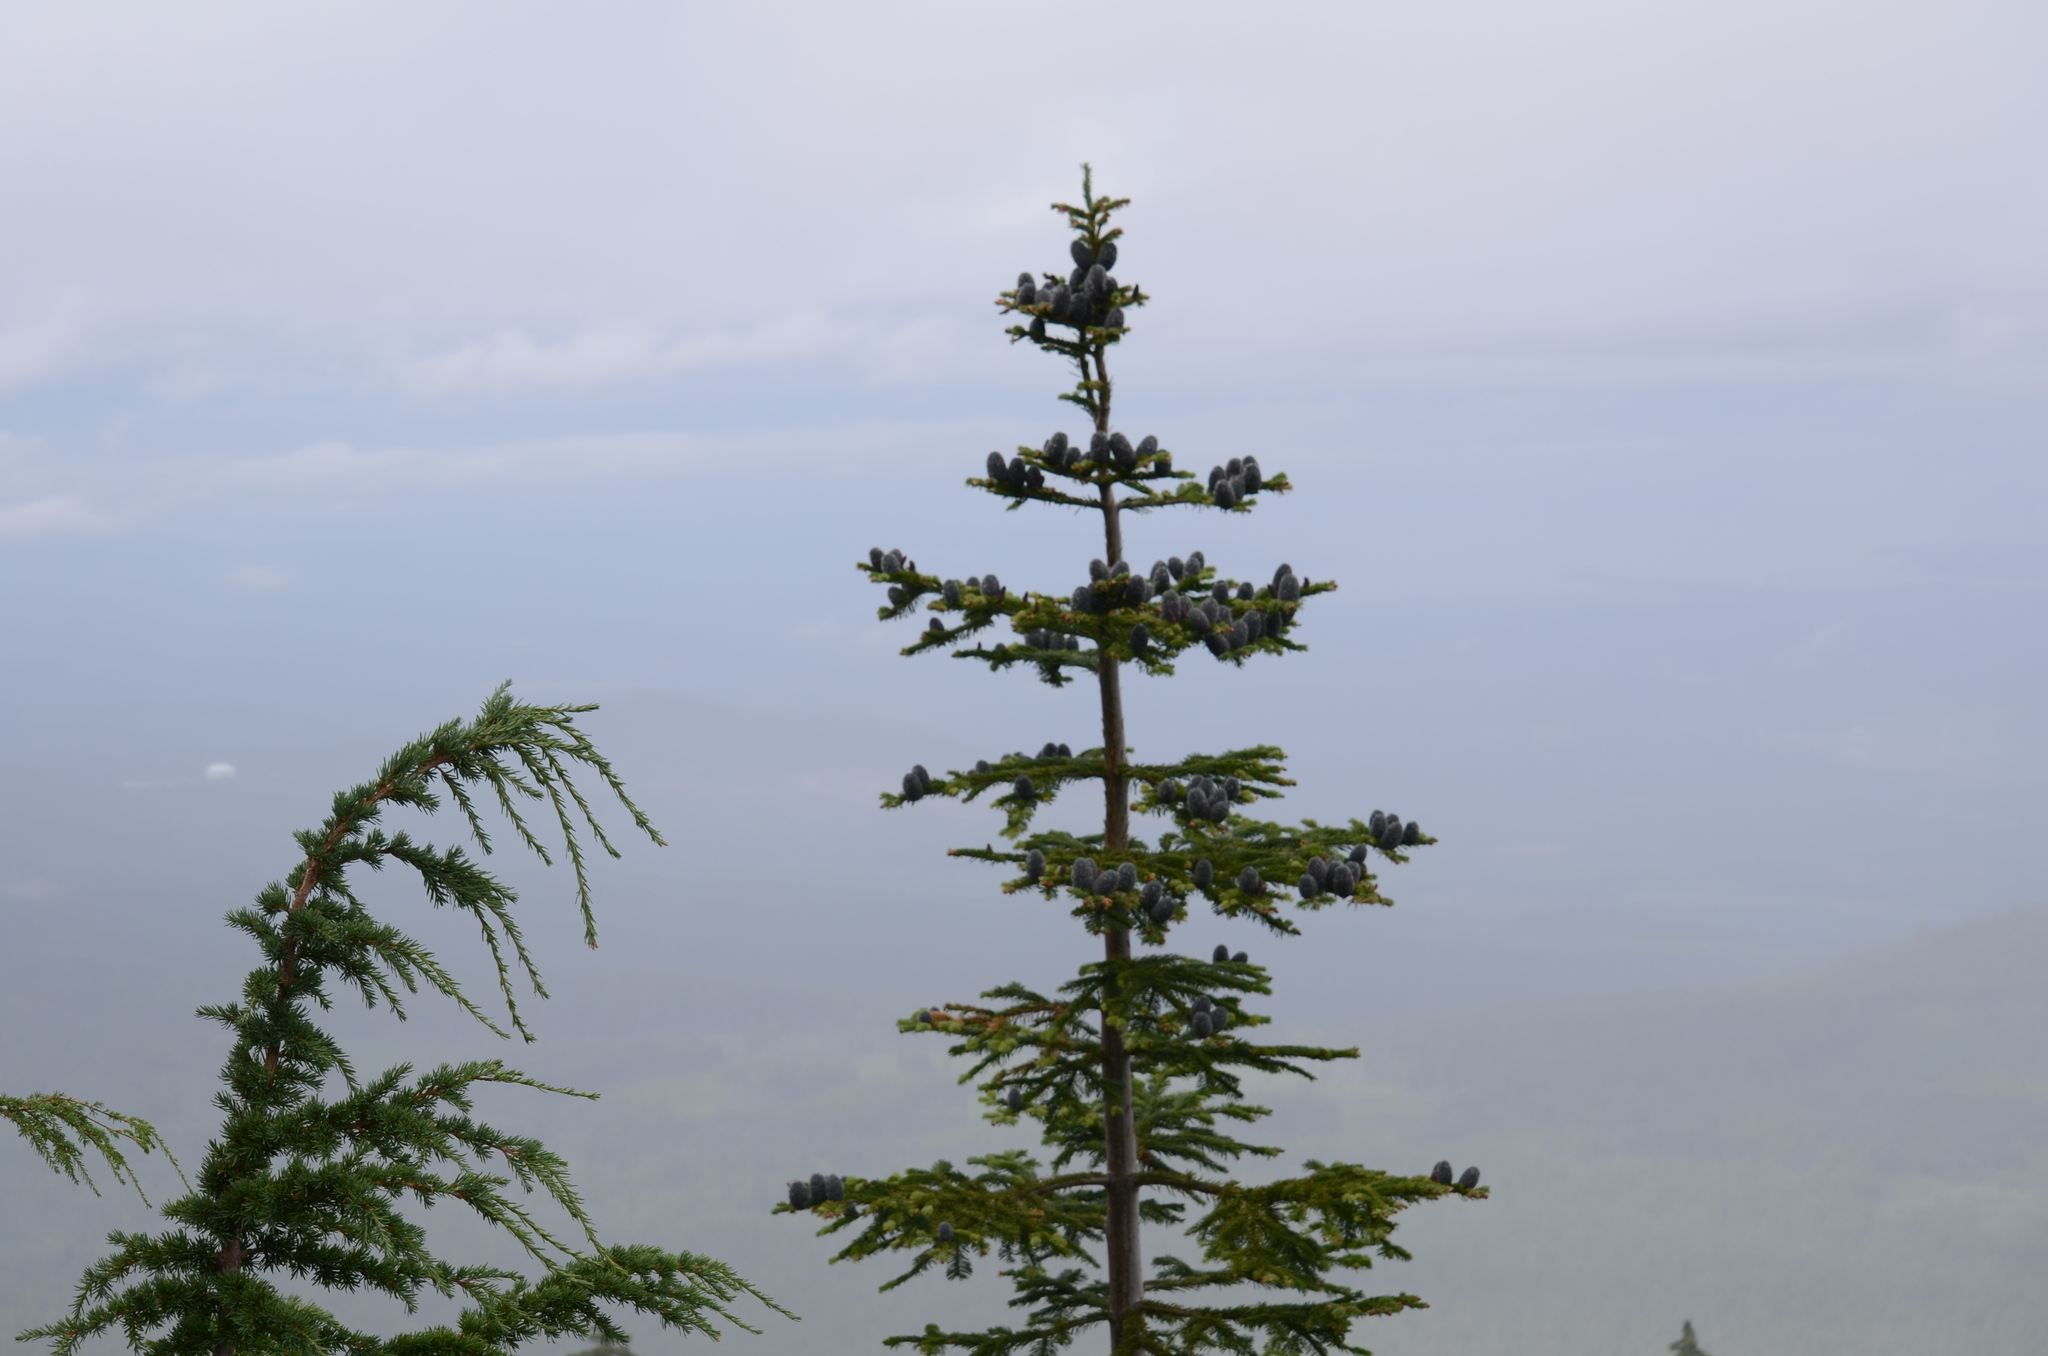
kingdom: Plantae
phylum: Tracheophyta
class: Pinopsida
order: Pinales
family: Pinaceae
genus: Abies
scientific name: Abies amabilis
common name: Pacific silver fir
